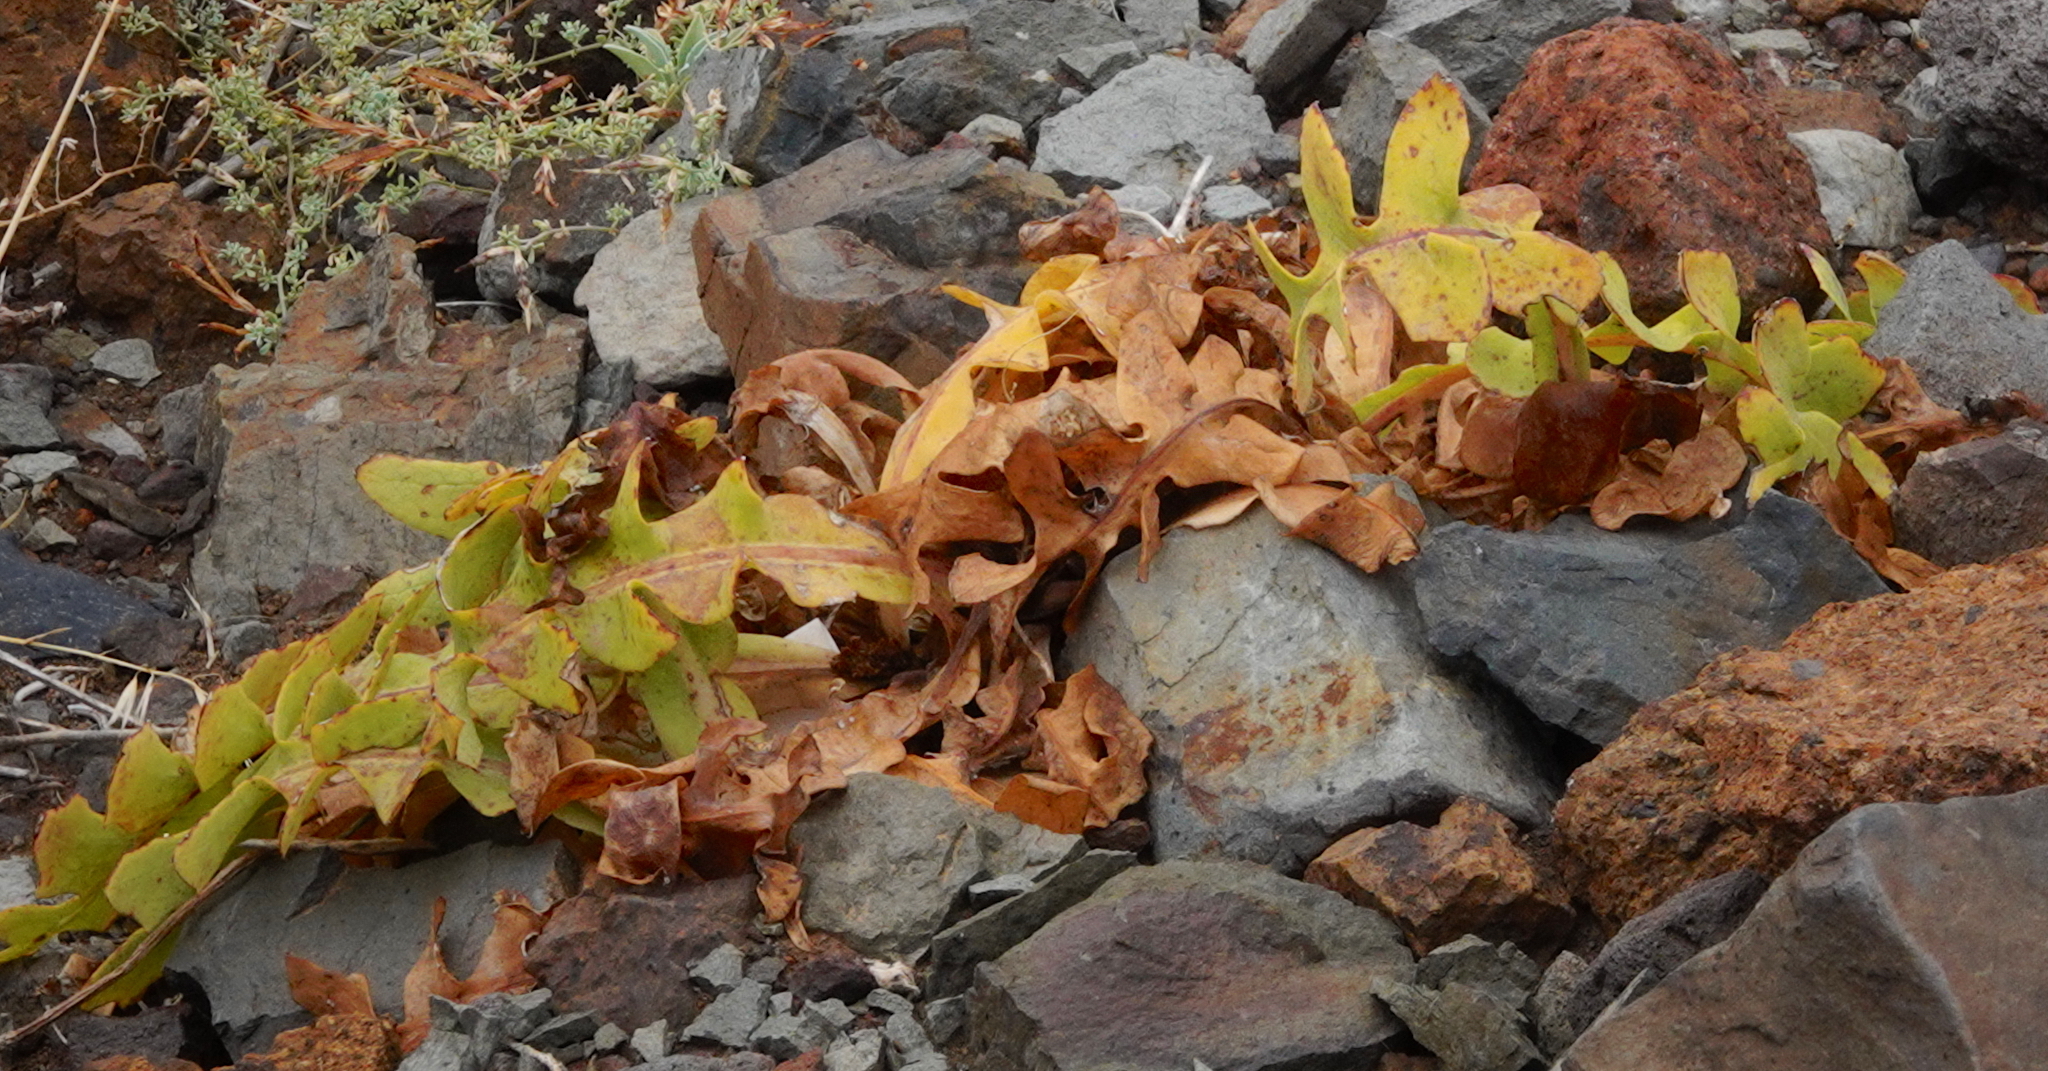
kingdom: Plantae
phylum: Tracheophyta
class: Magnoliopsida
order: Asterales
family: Asteraceae
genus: Sonchus
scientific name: Sonchus latifolius
